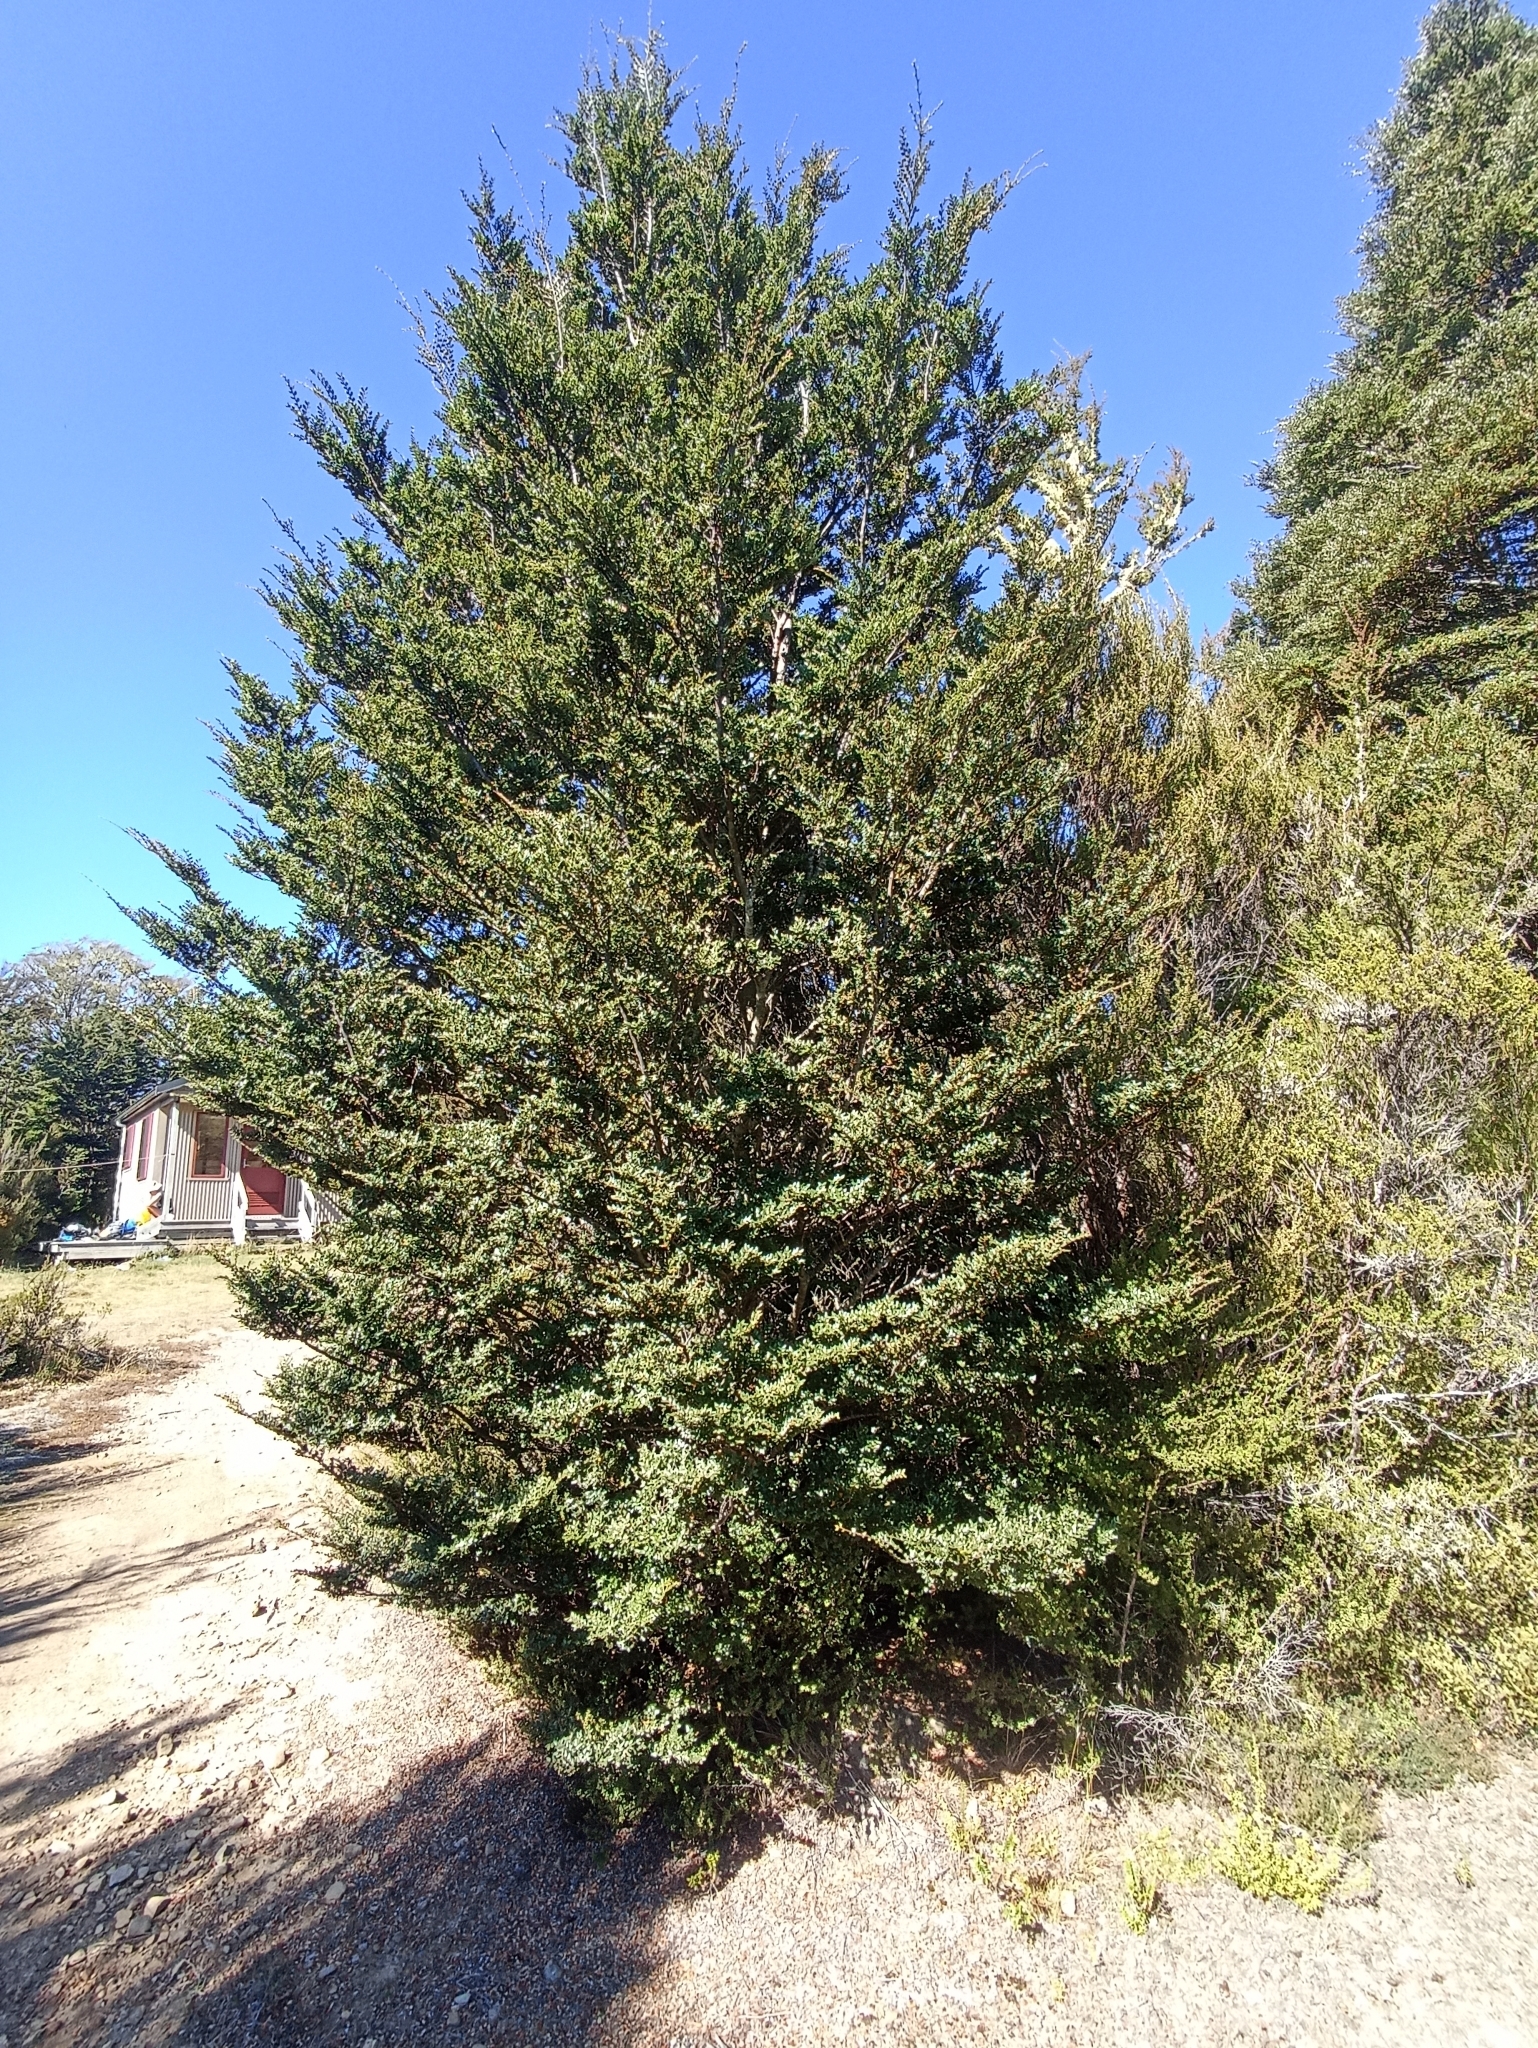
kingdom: Plantae
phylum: Tracheophyta
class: Magnoliopsida
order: Fagales
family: Nothofagaceae
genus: Nothofagus
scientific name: Nothofagus cliffortioides
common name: Mountain beech
